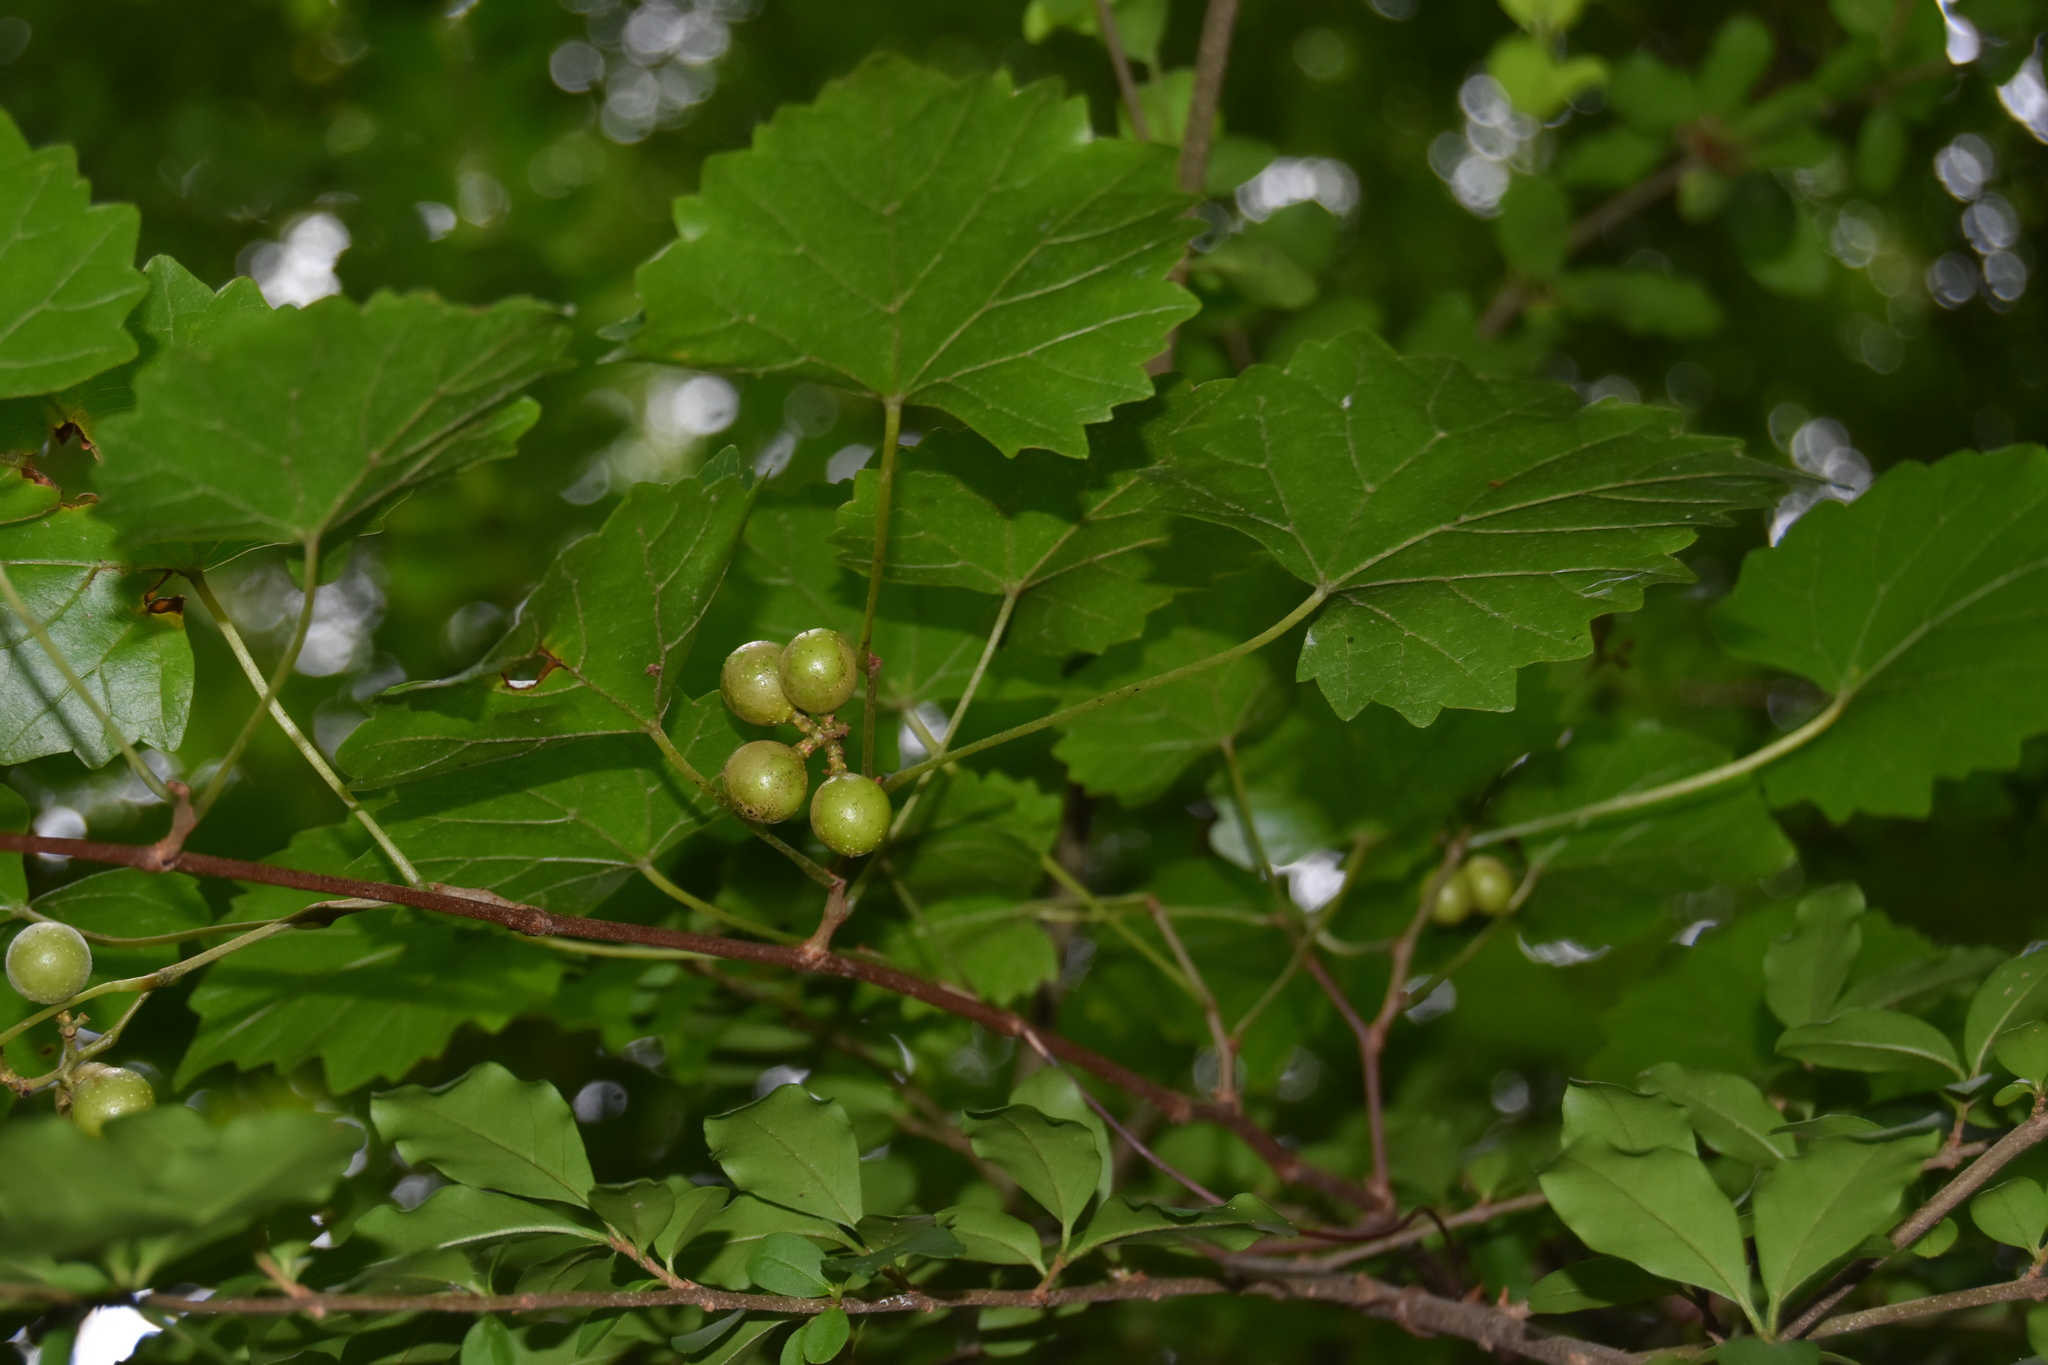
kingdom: Plantae
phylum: Tracheophyta
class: Magnoliopsida
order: Vitales
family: Vitaceae
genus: Vitis
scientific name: Vitis rotundifolia
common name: Muscadine grape
